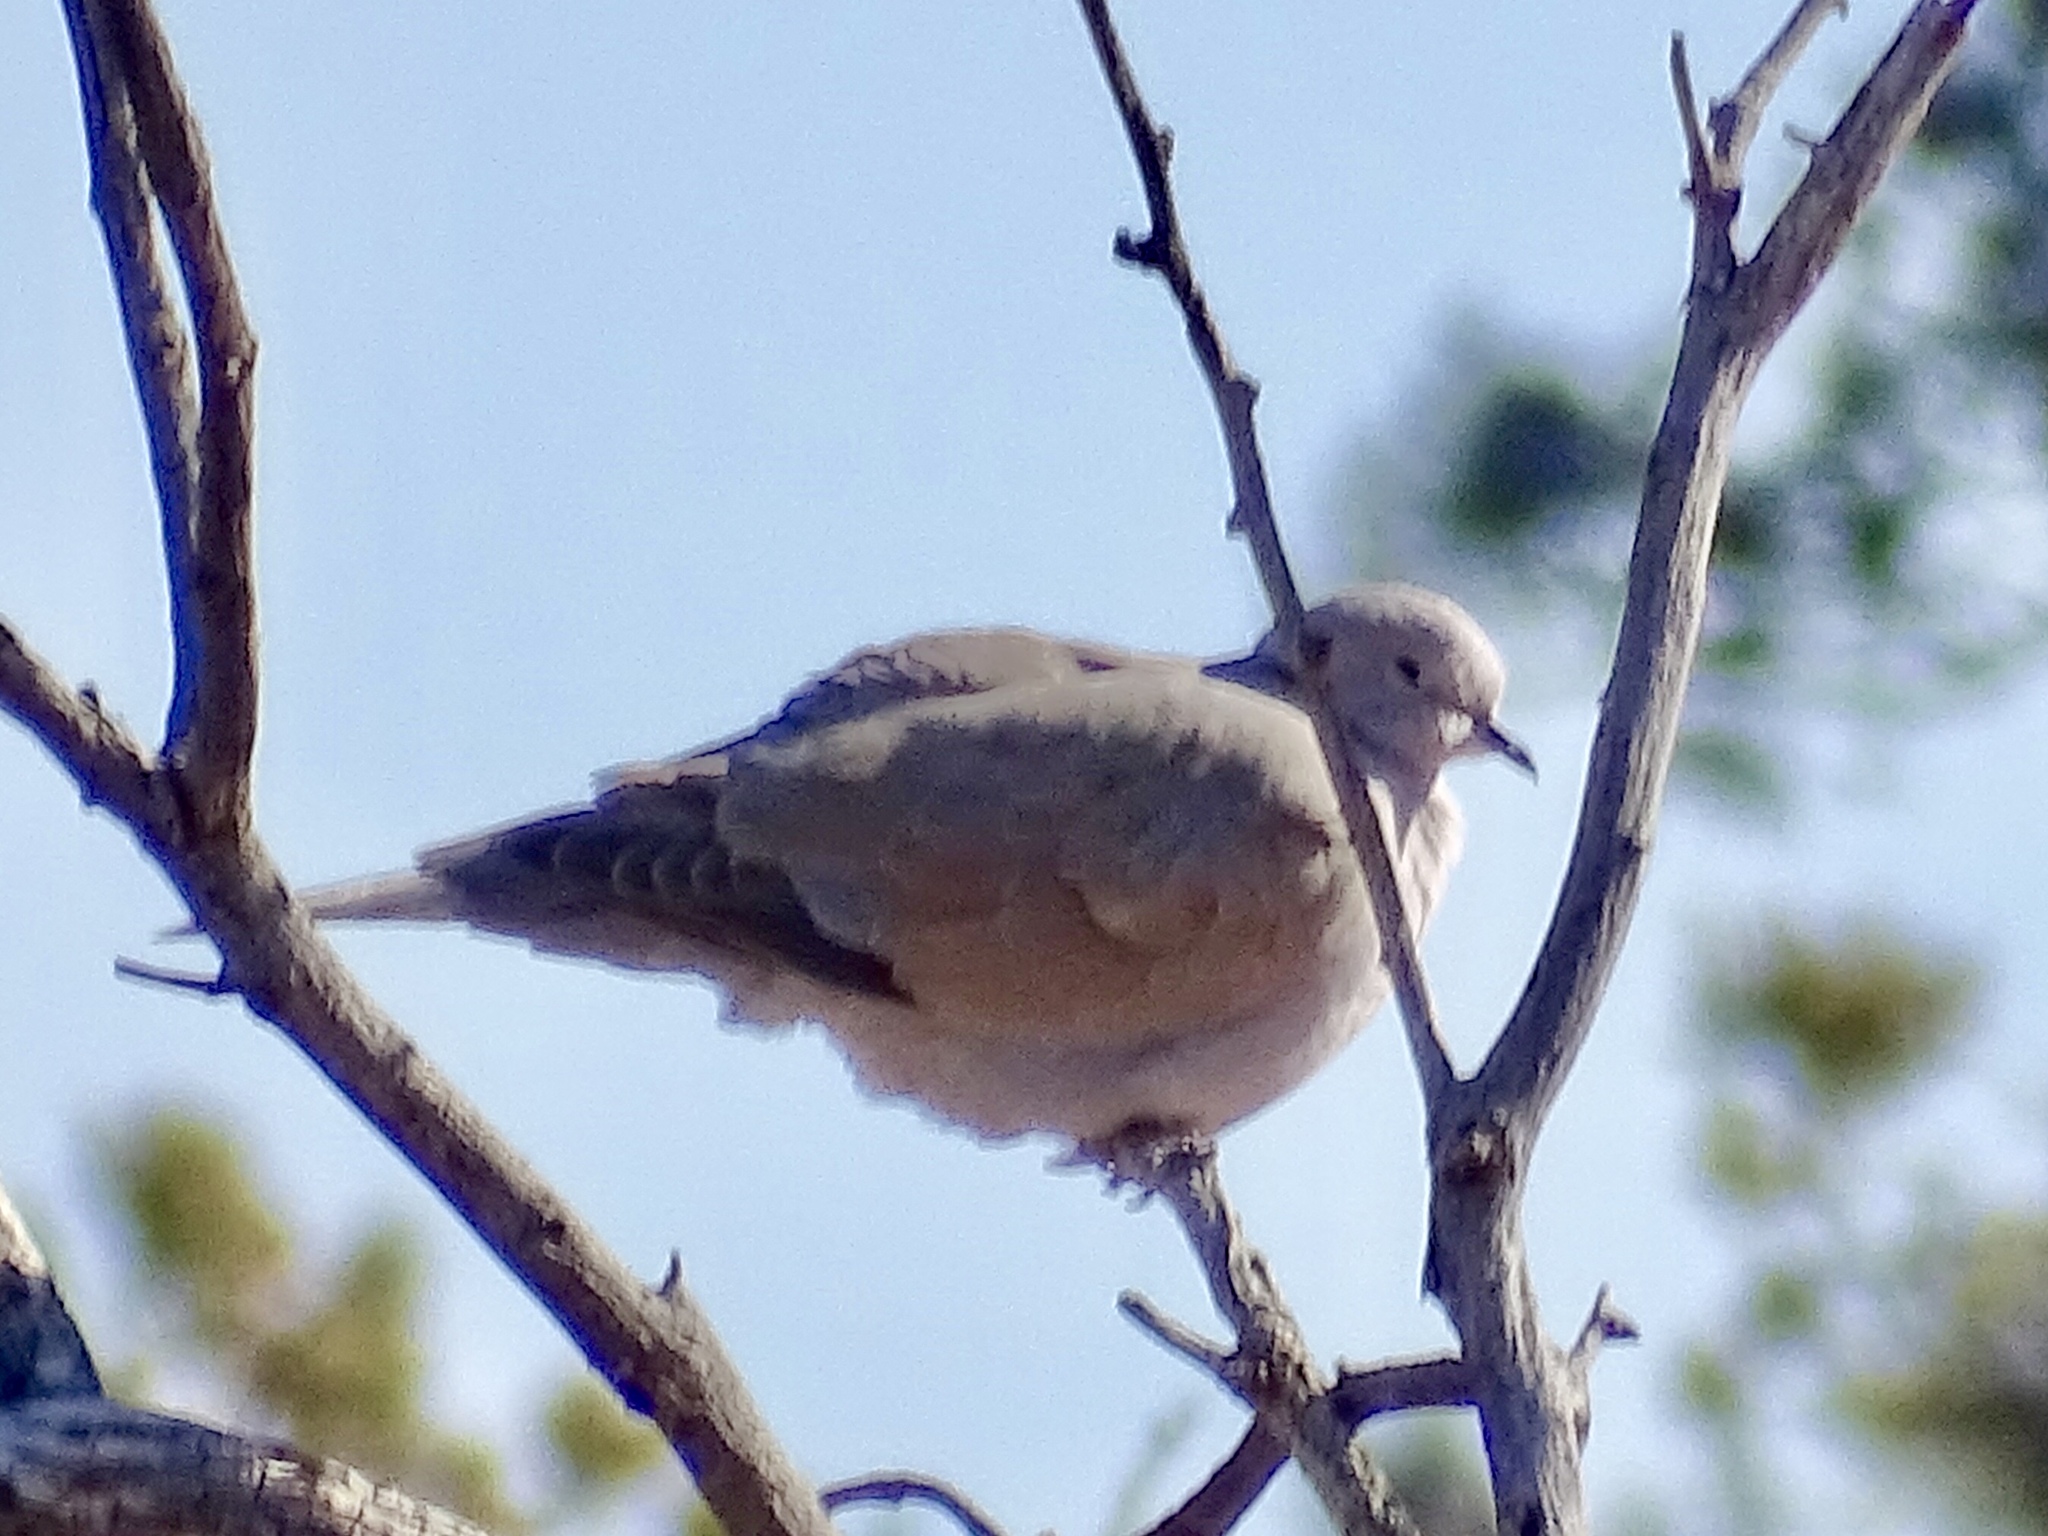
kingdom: Animalia
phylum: Chordata
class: Aves
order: Columbiformes
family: Columbidae
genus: Streptopelia
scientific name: Streptopelia decaocto
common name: Eurasian collared dove
